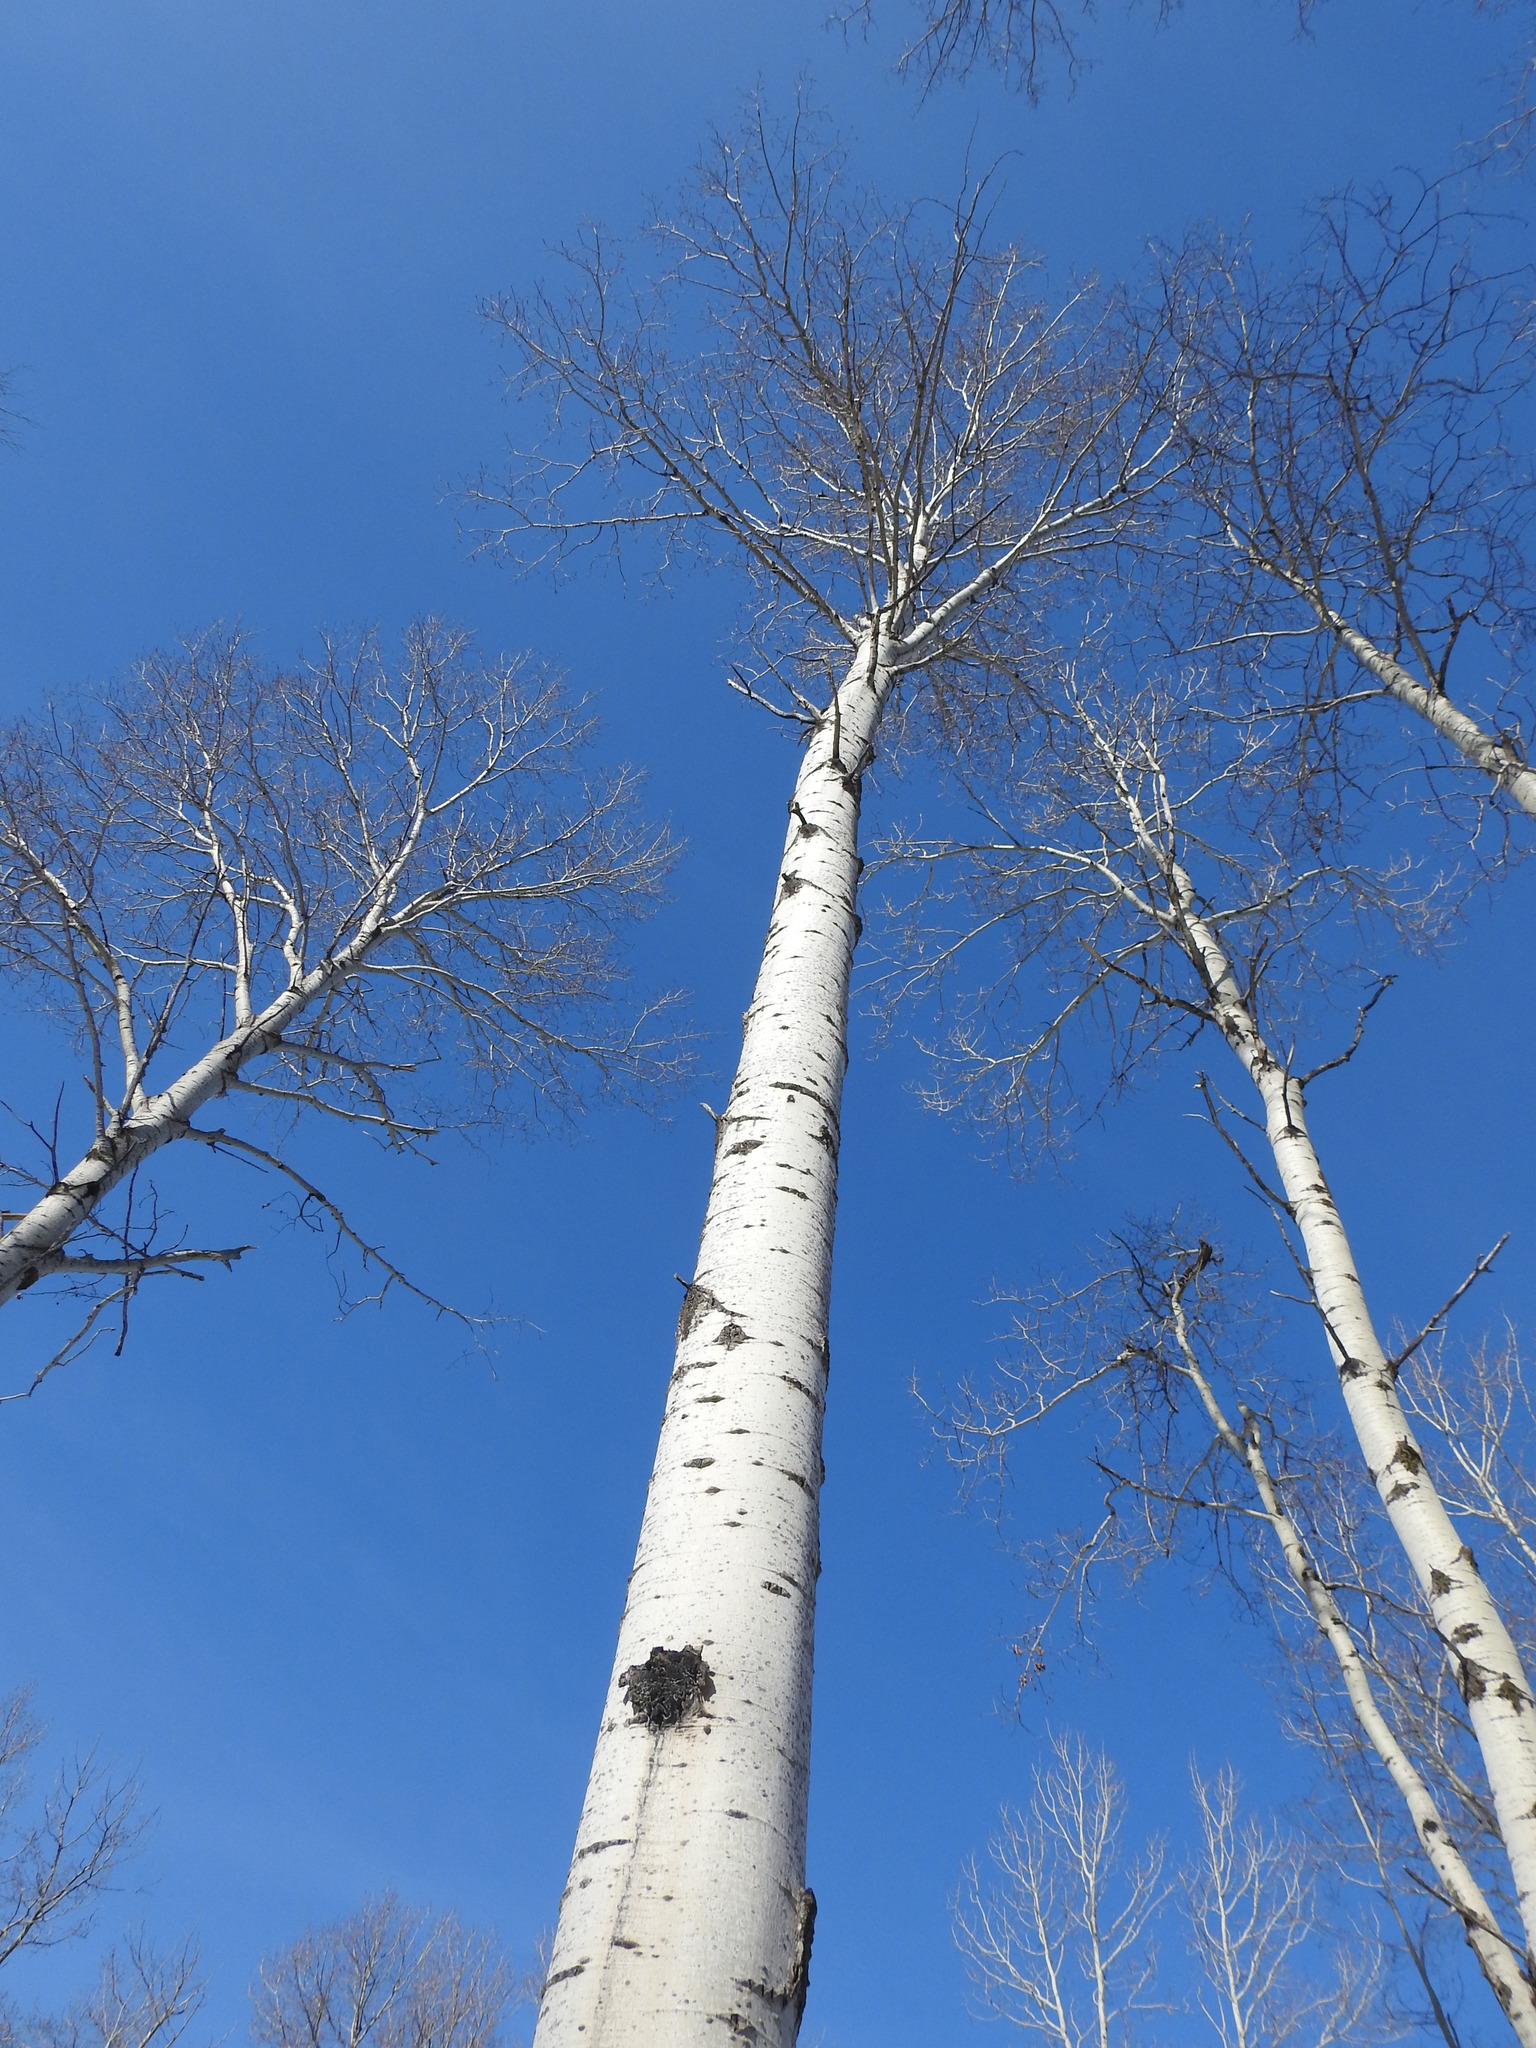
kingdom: Plantae
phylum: Tracheophyta
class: Magnoliopsida
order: Malpighiales
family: Salicaceae
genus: Populus
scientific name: Populus tremuloides
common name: Quaking aspen
